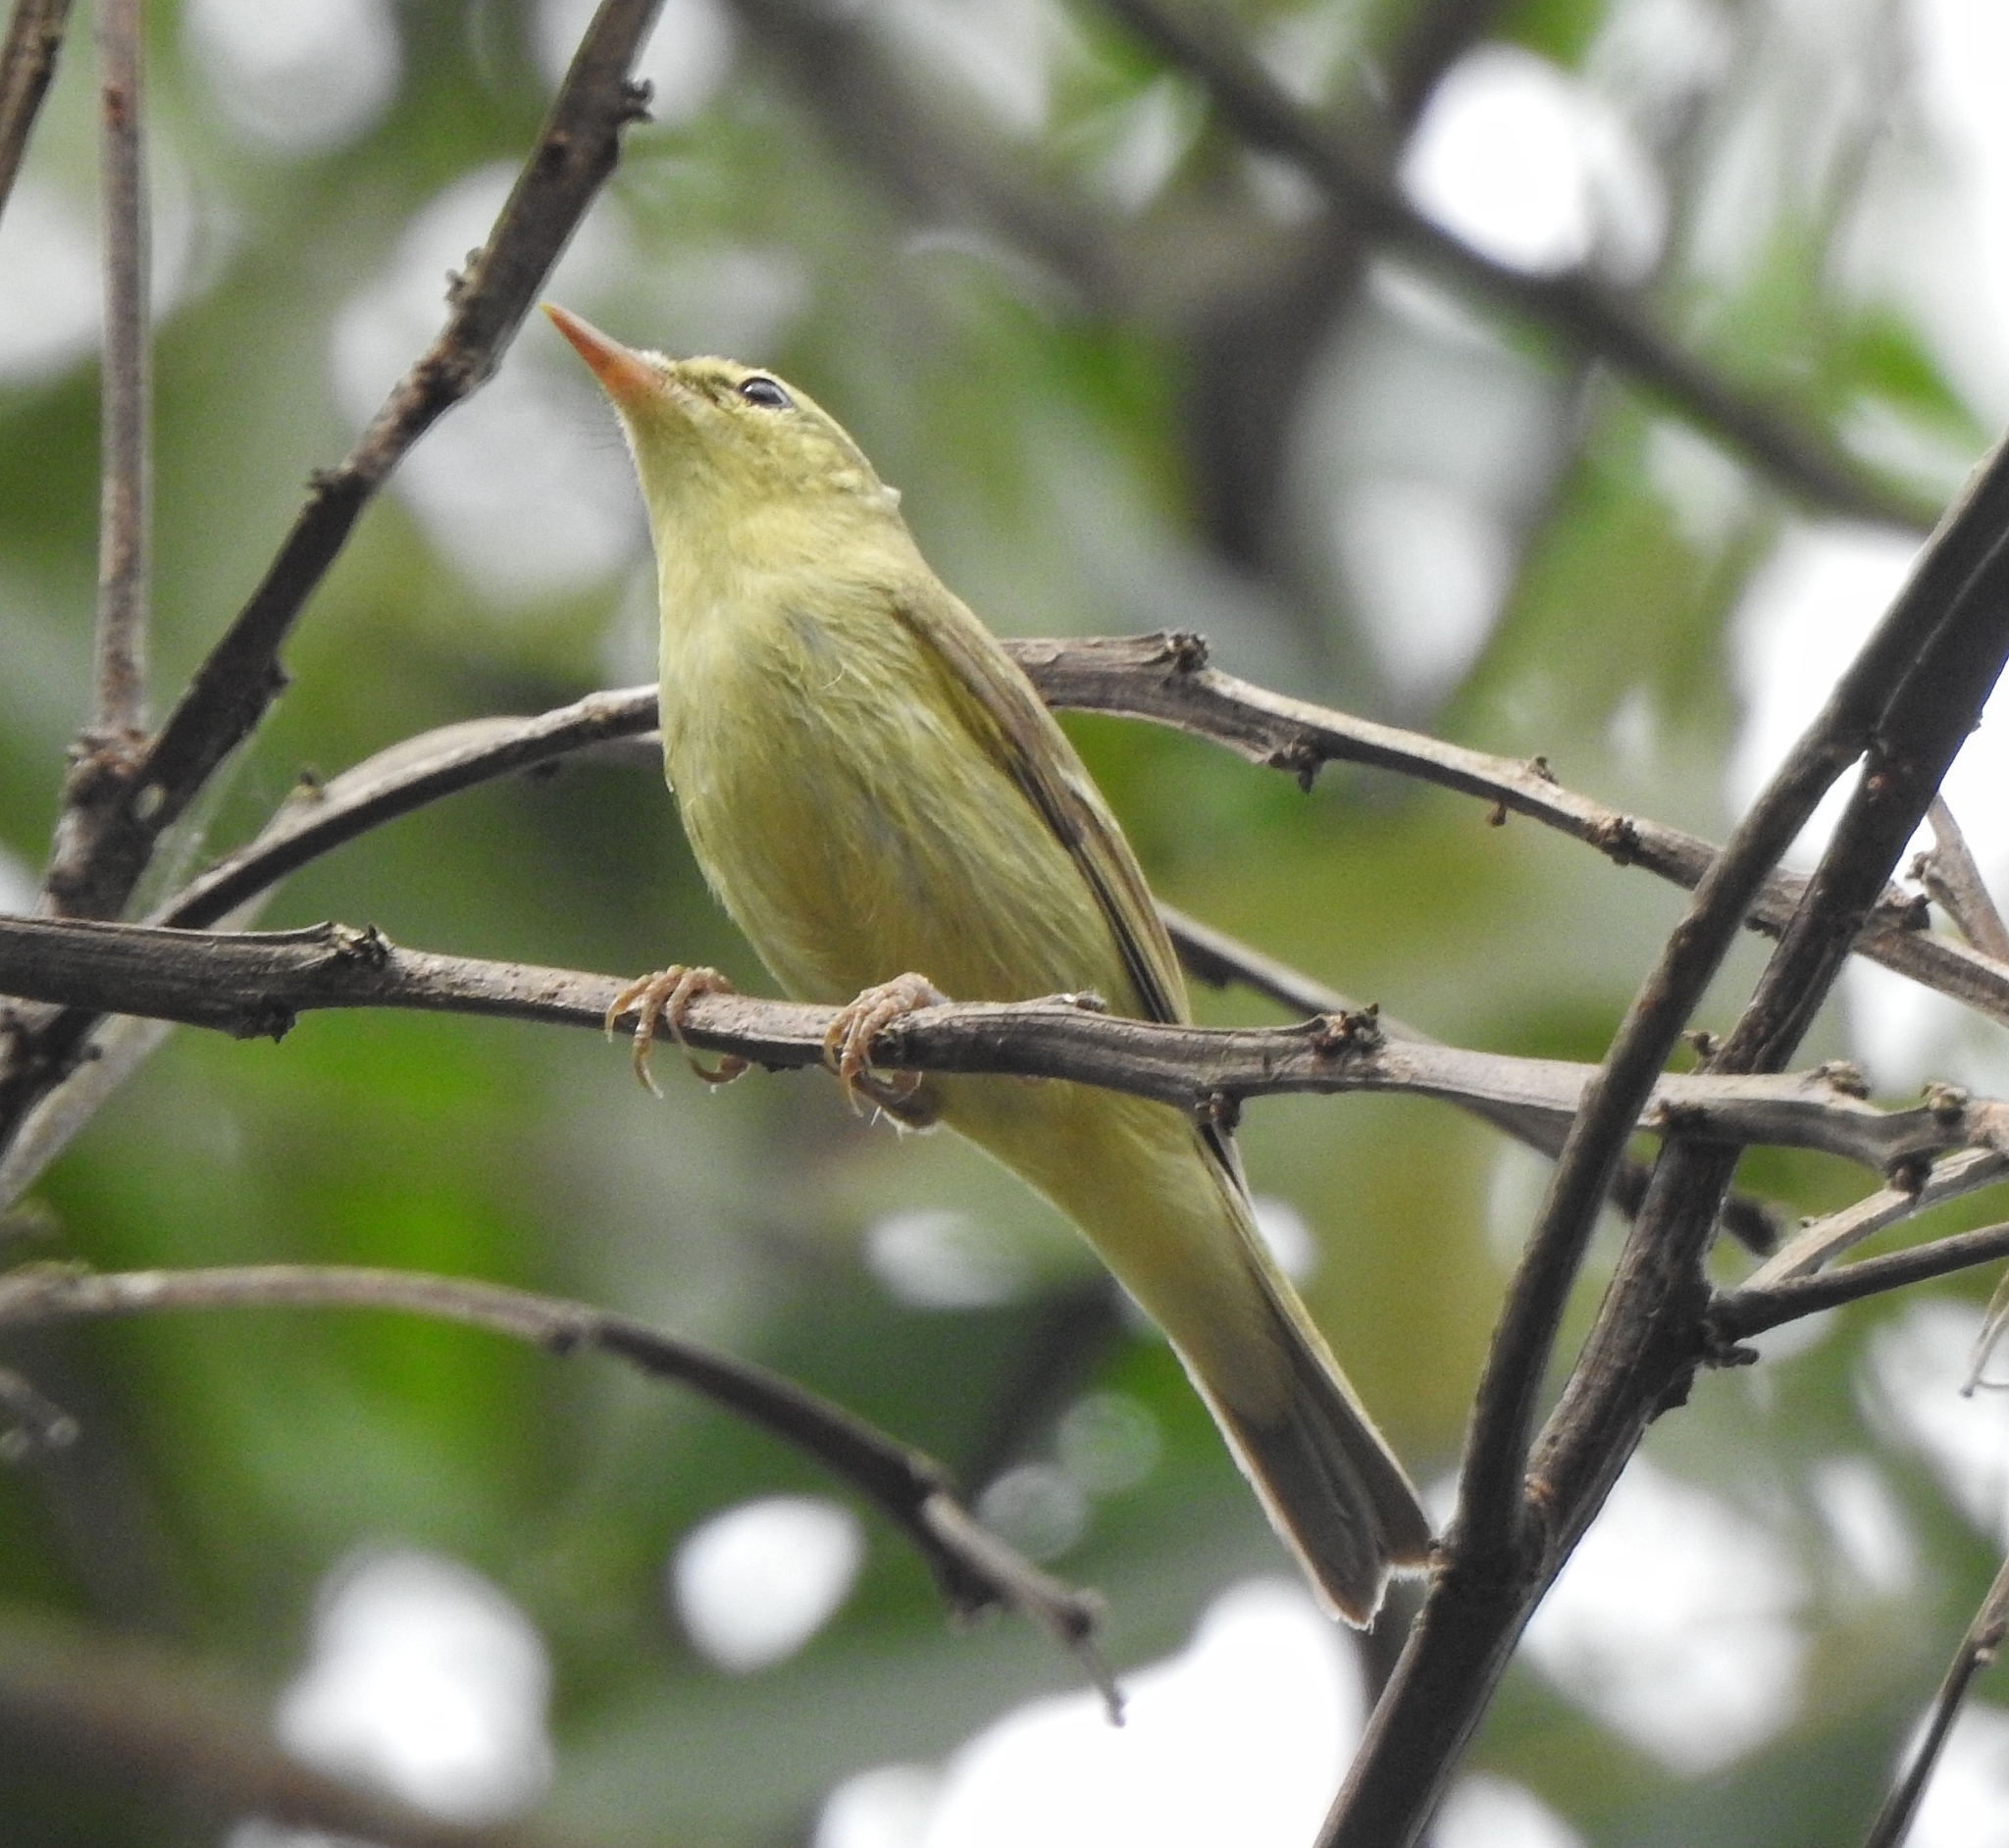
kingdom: Animalia
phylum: Chordata
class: Aves
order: Passeriformes
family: Phylloscopidae
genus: Phylloscopus
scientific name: Phylloscopus nitidus
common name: Green warbler
